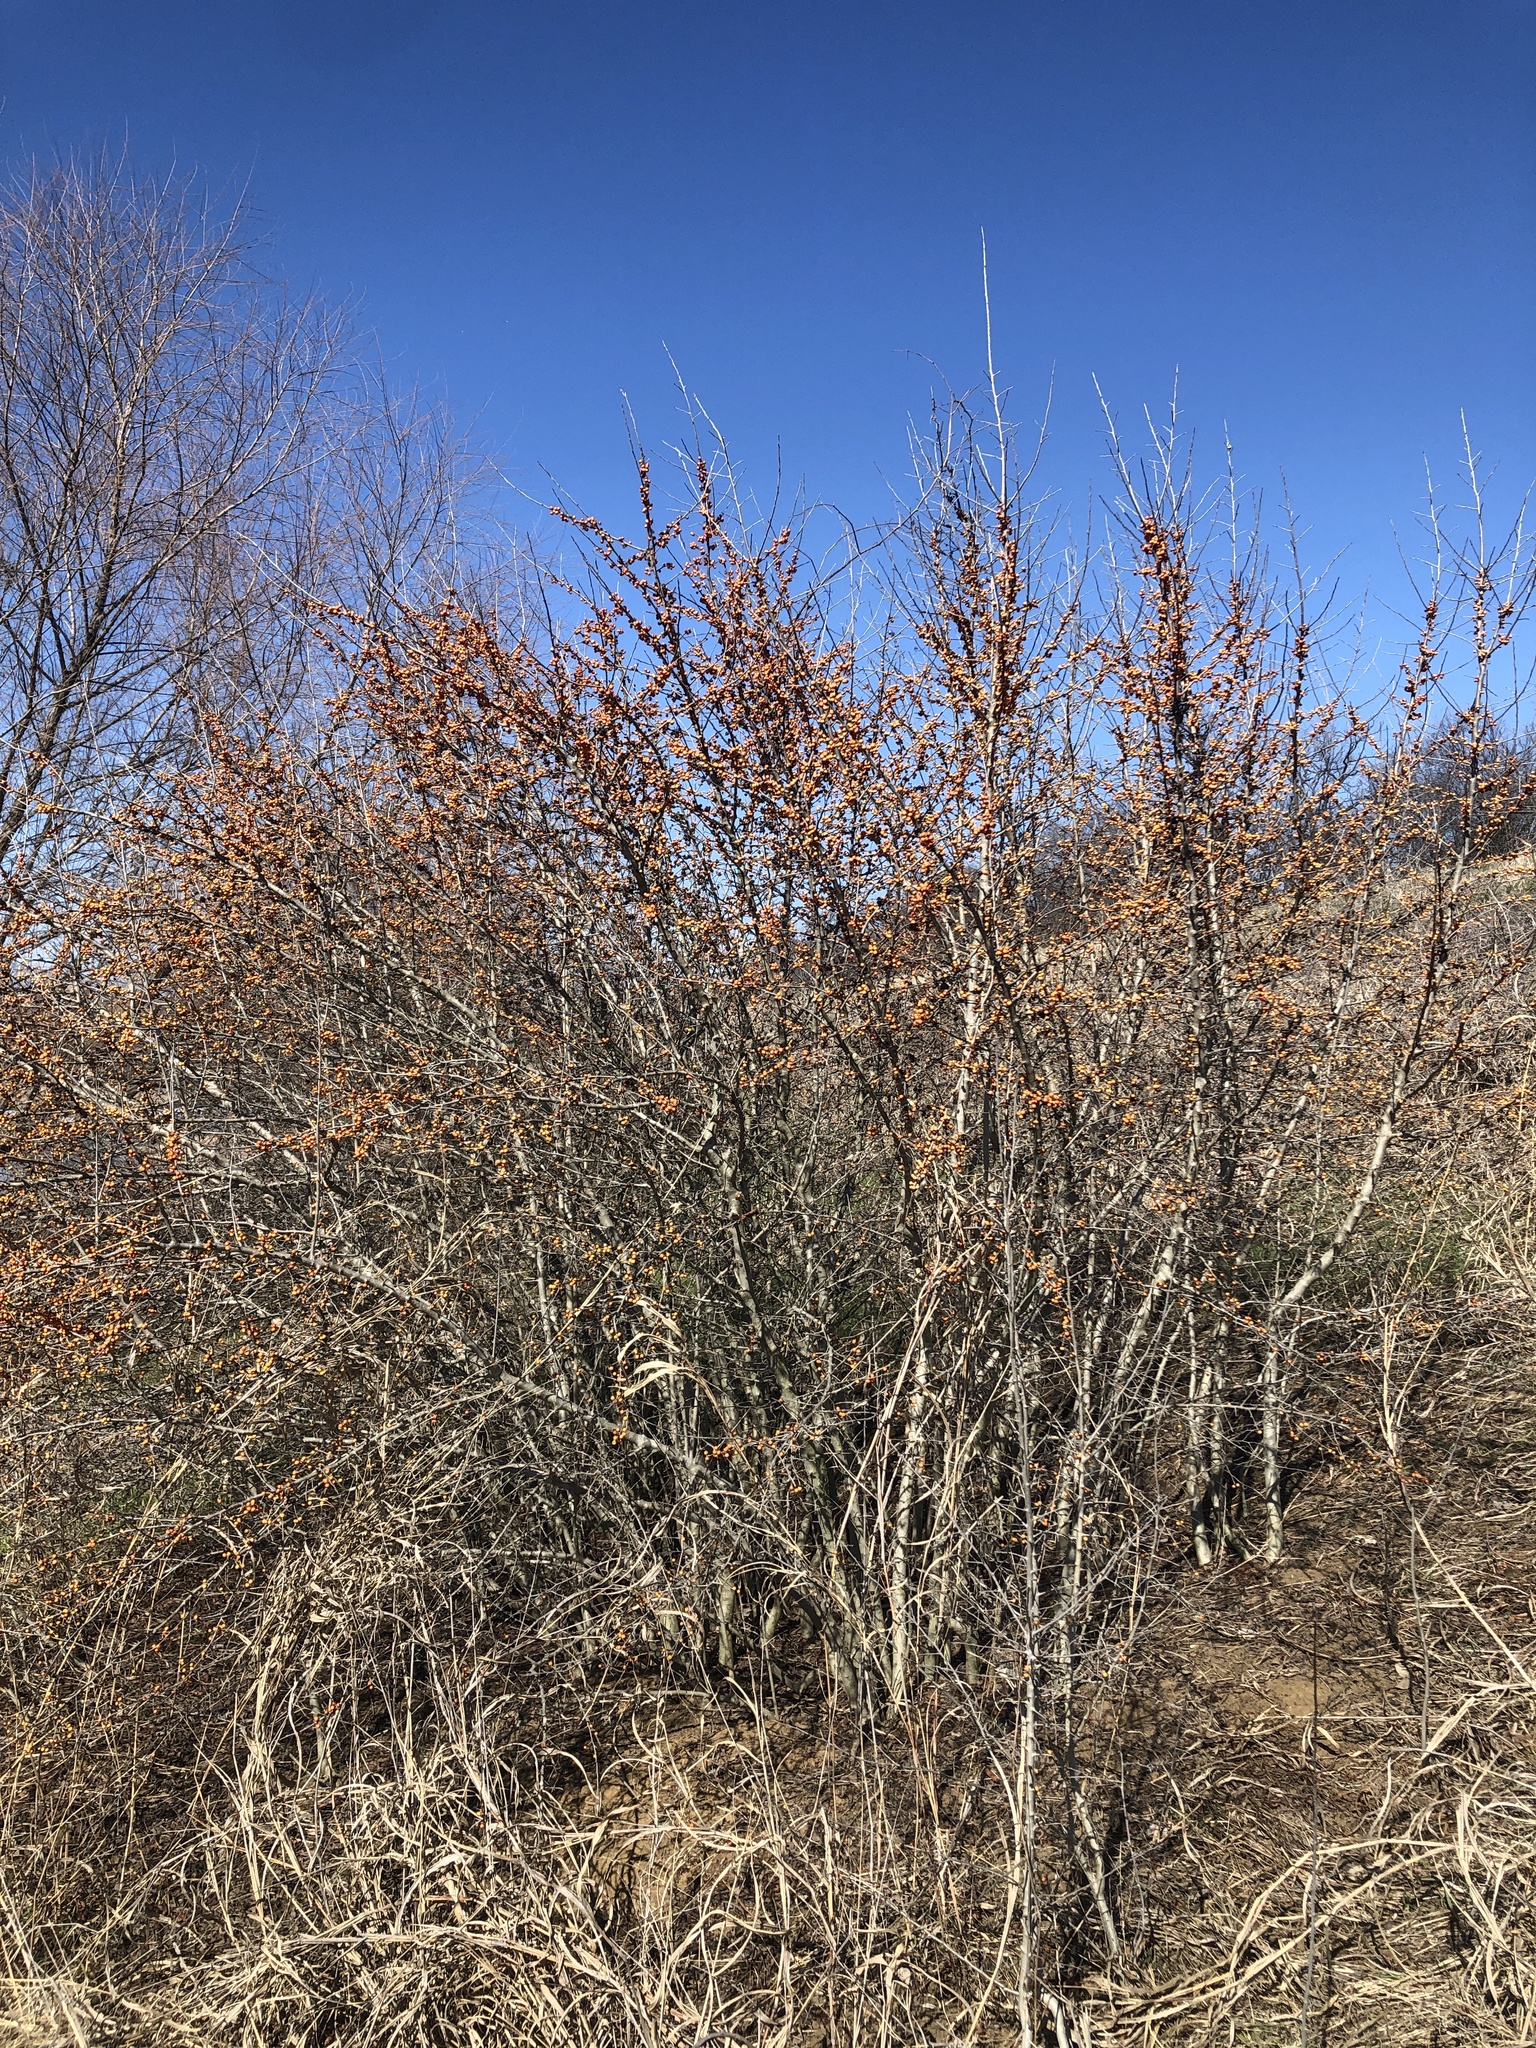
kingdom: Plantae
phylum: Tracheophyta
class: Magnoliopsida
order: Aquifoliales
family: Aquifoliaceae
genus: Ilex
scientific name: Ilex decidua
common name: Possum-haw
